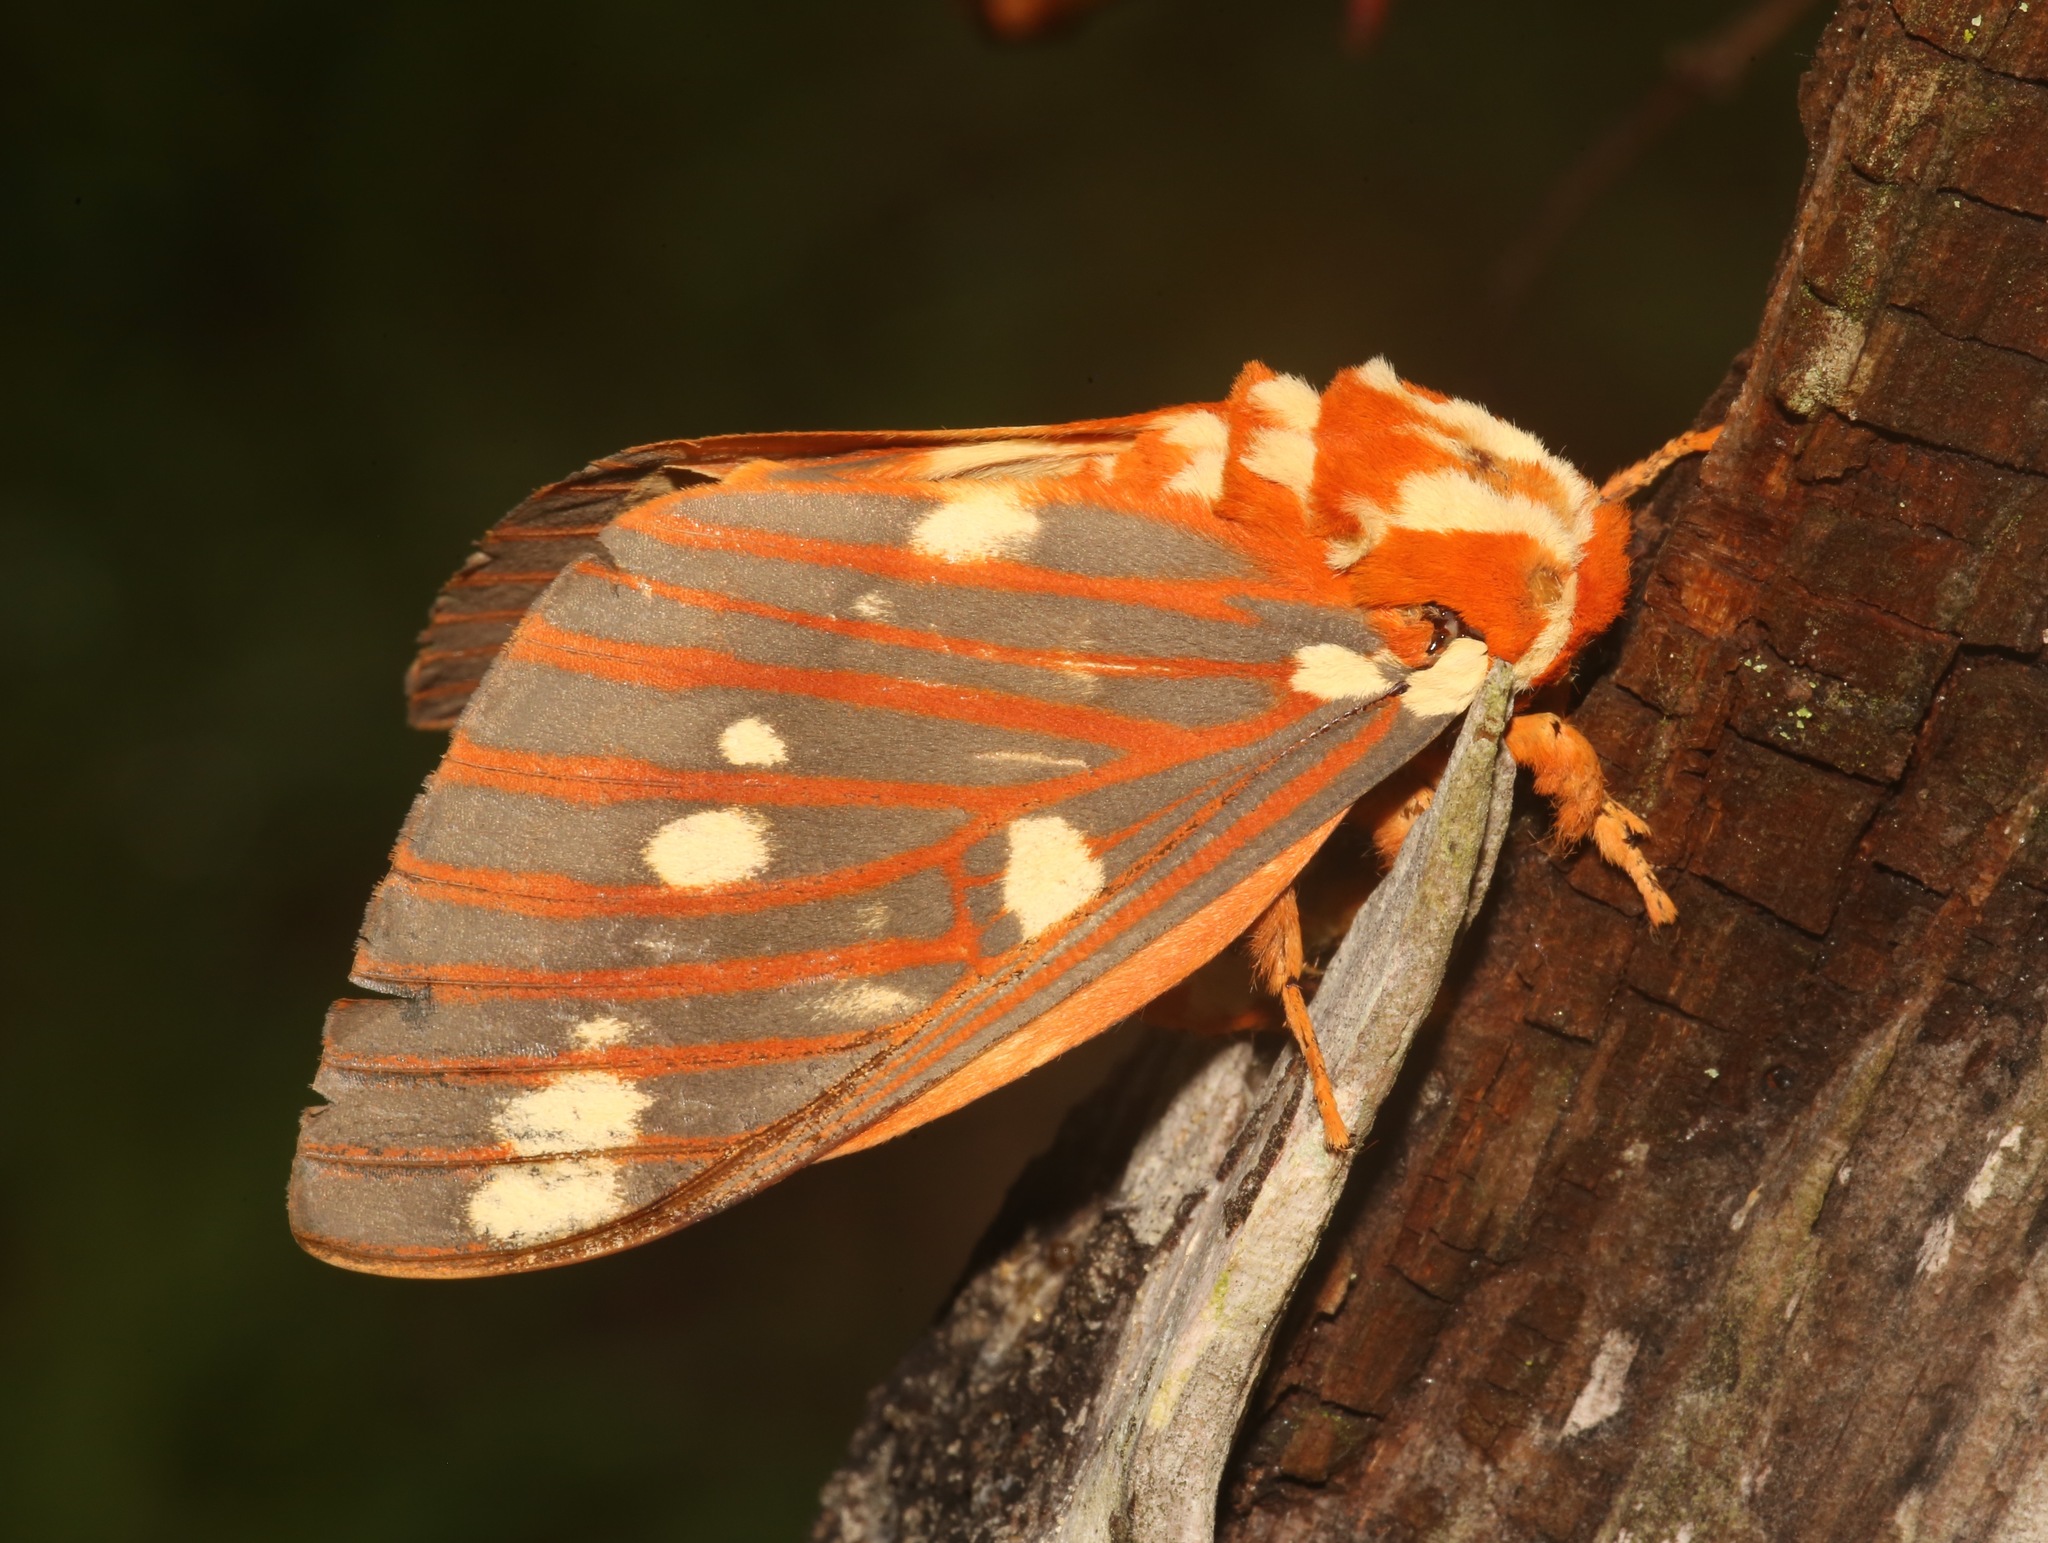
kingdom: Animalia
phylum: Arthropoda
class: Insecta
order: Lepidoptera
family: Saturniidae
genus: Citheronia
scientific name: Citheronia regalis
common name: Hickory horned devil
